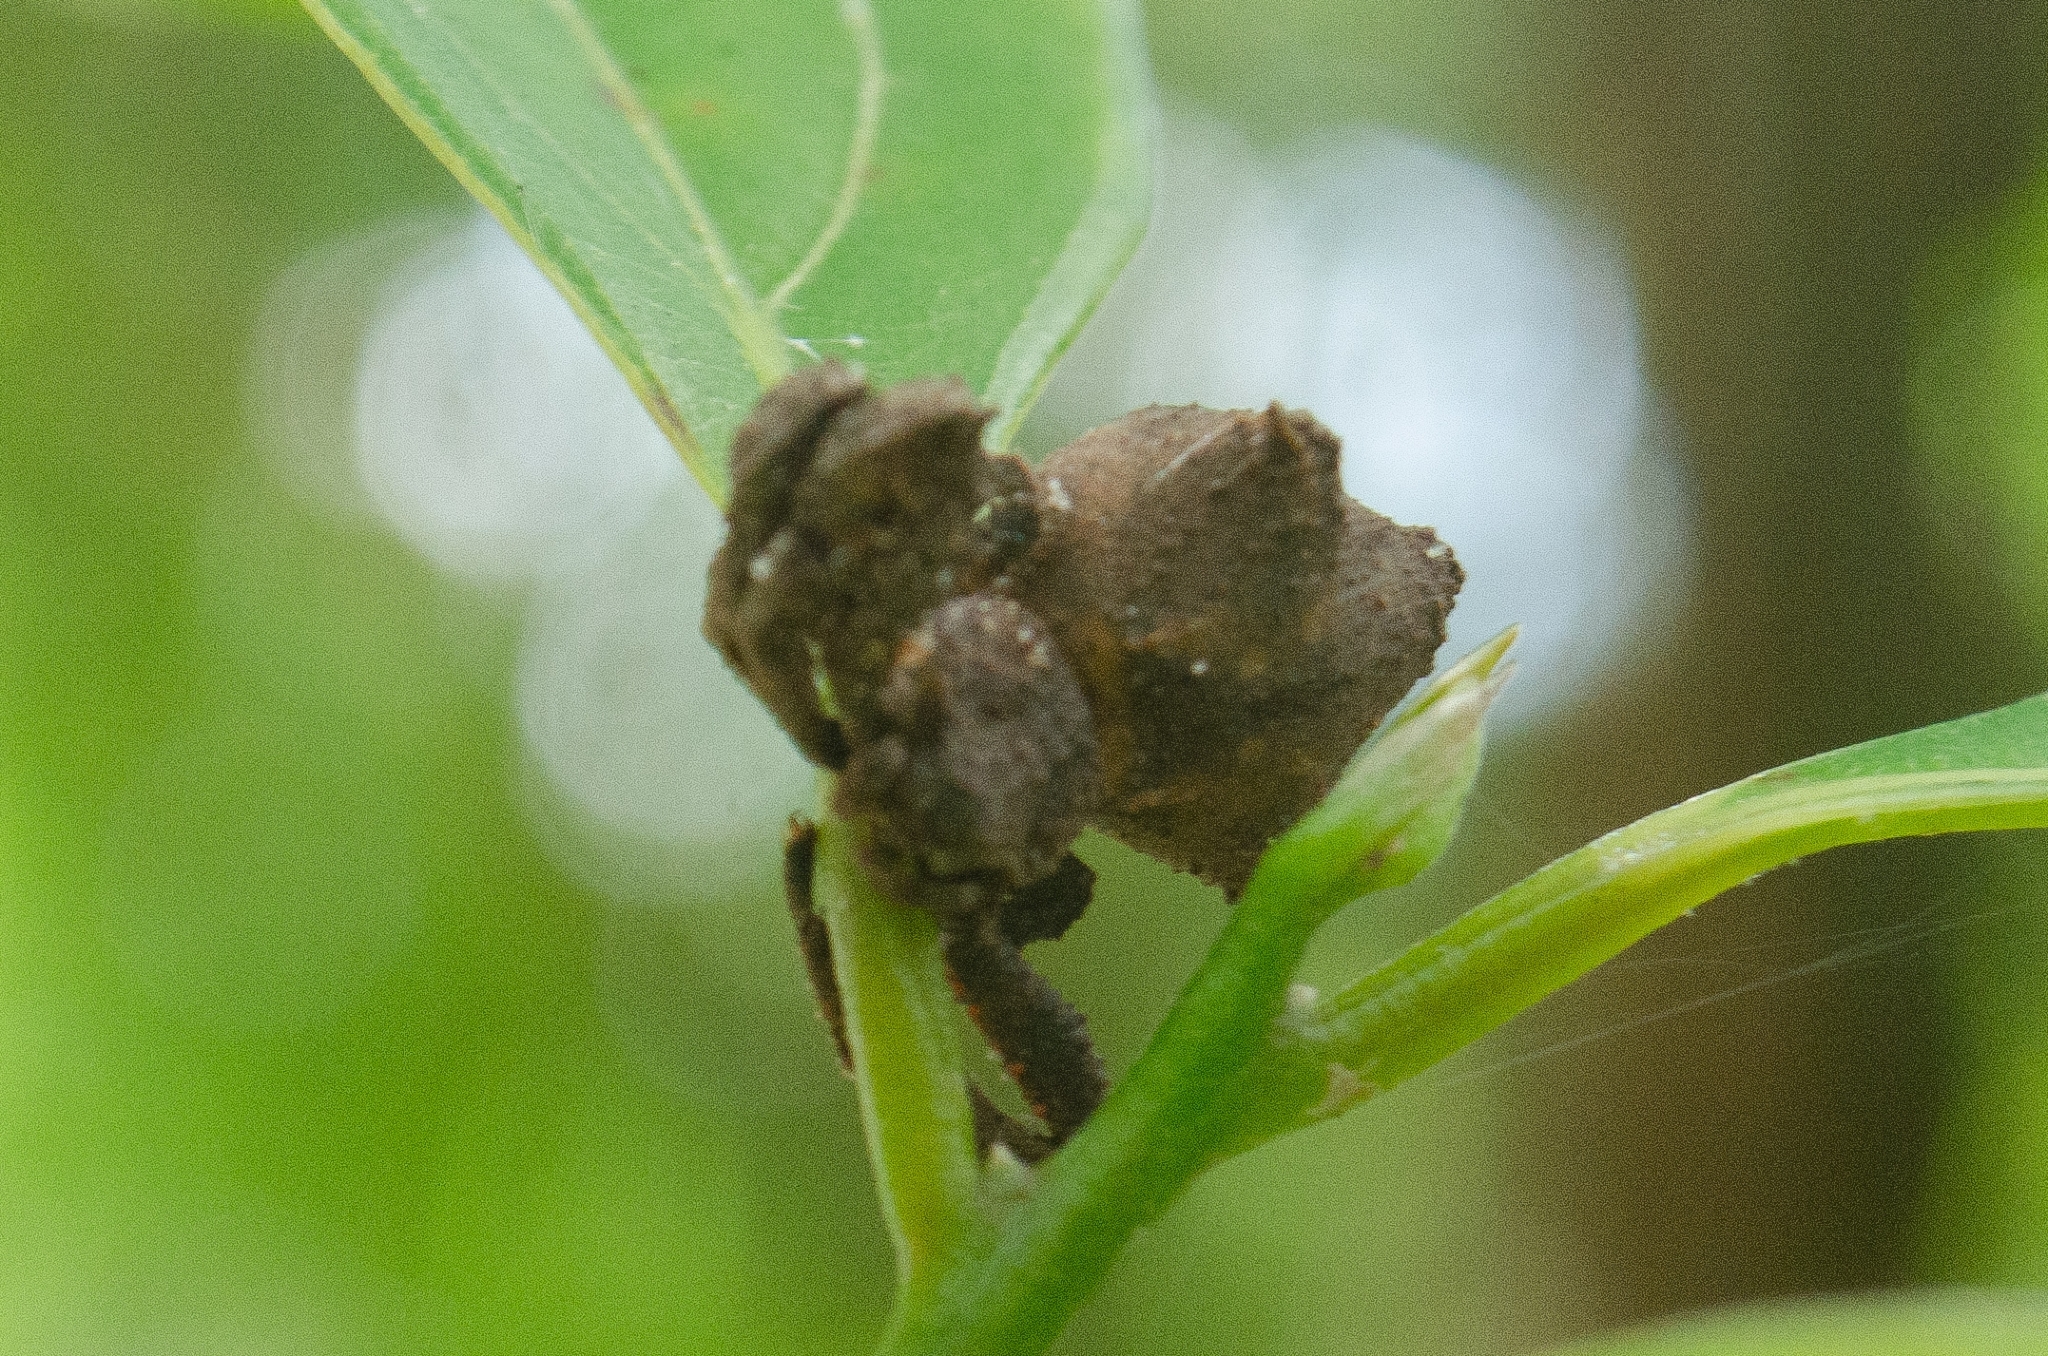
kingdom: Animalia
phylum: Arthropoda
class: Arachnida
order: Araneae
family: Thomisidae
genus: Epicadus
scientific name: Epicadus stelloides
